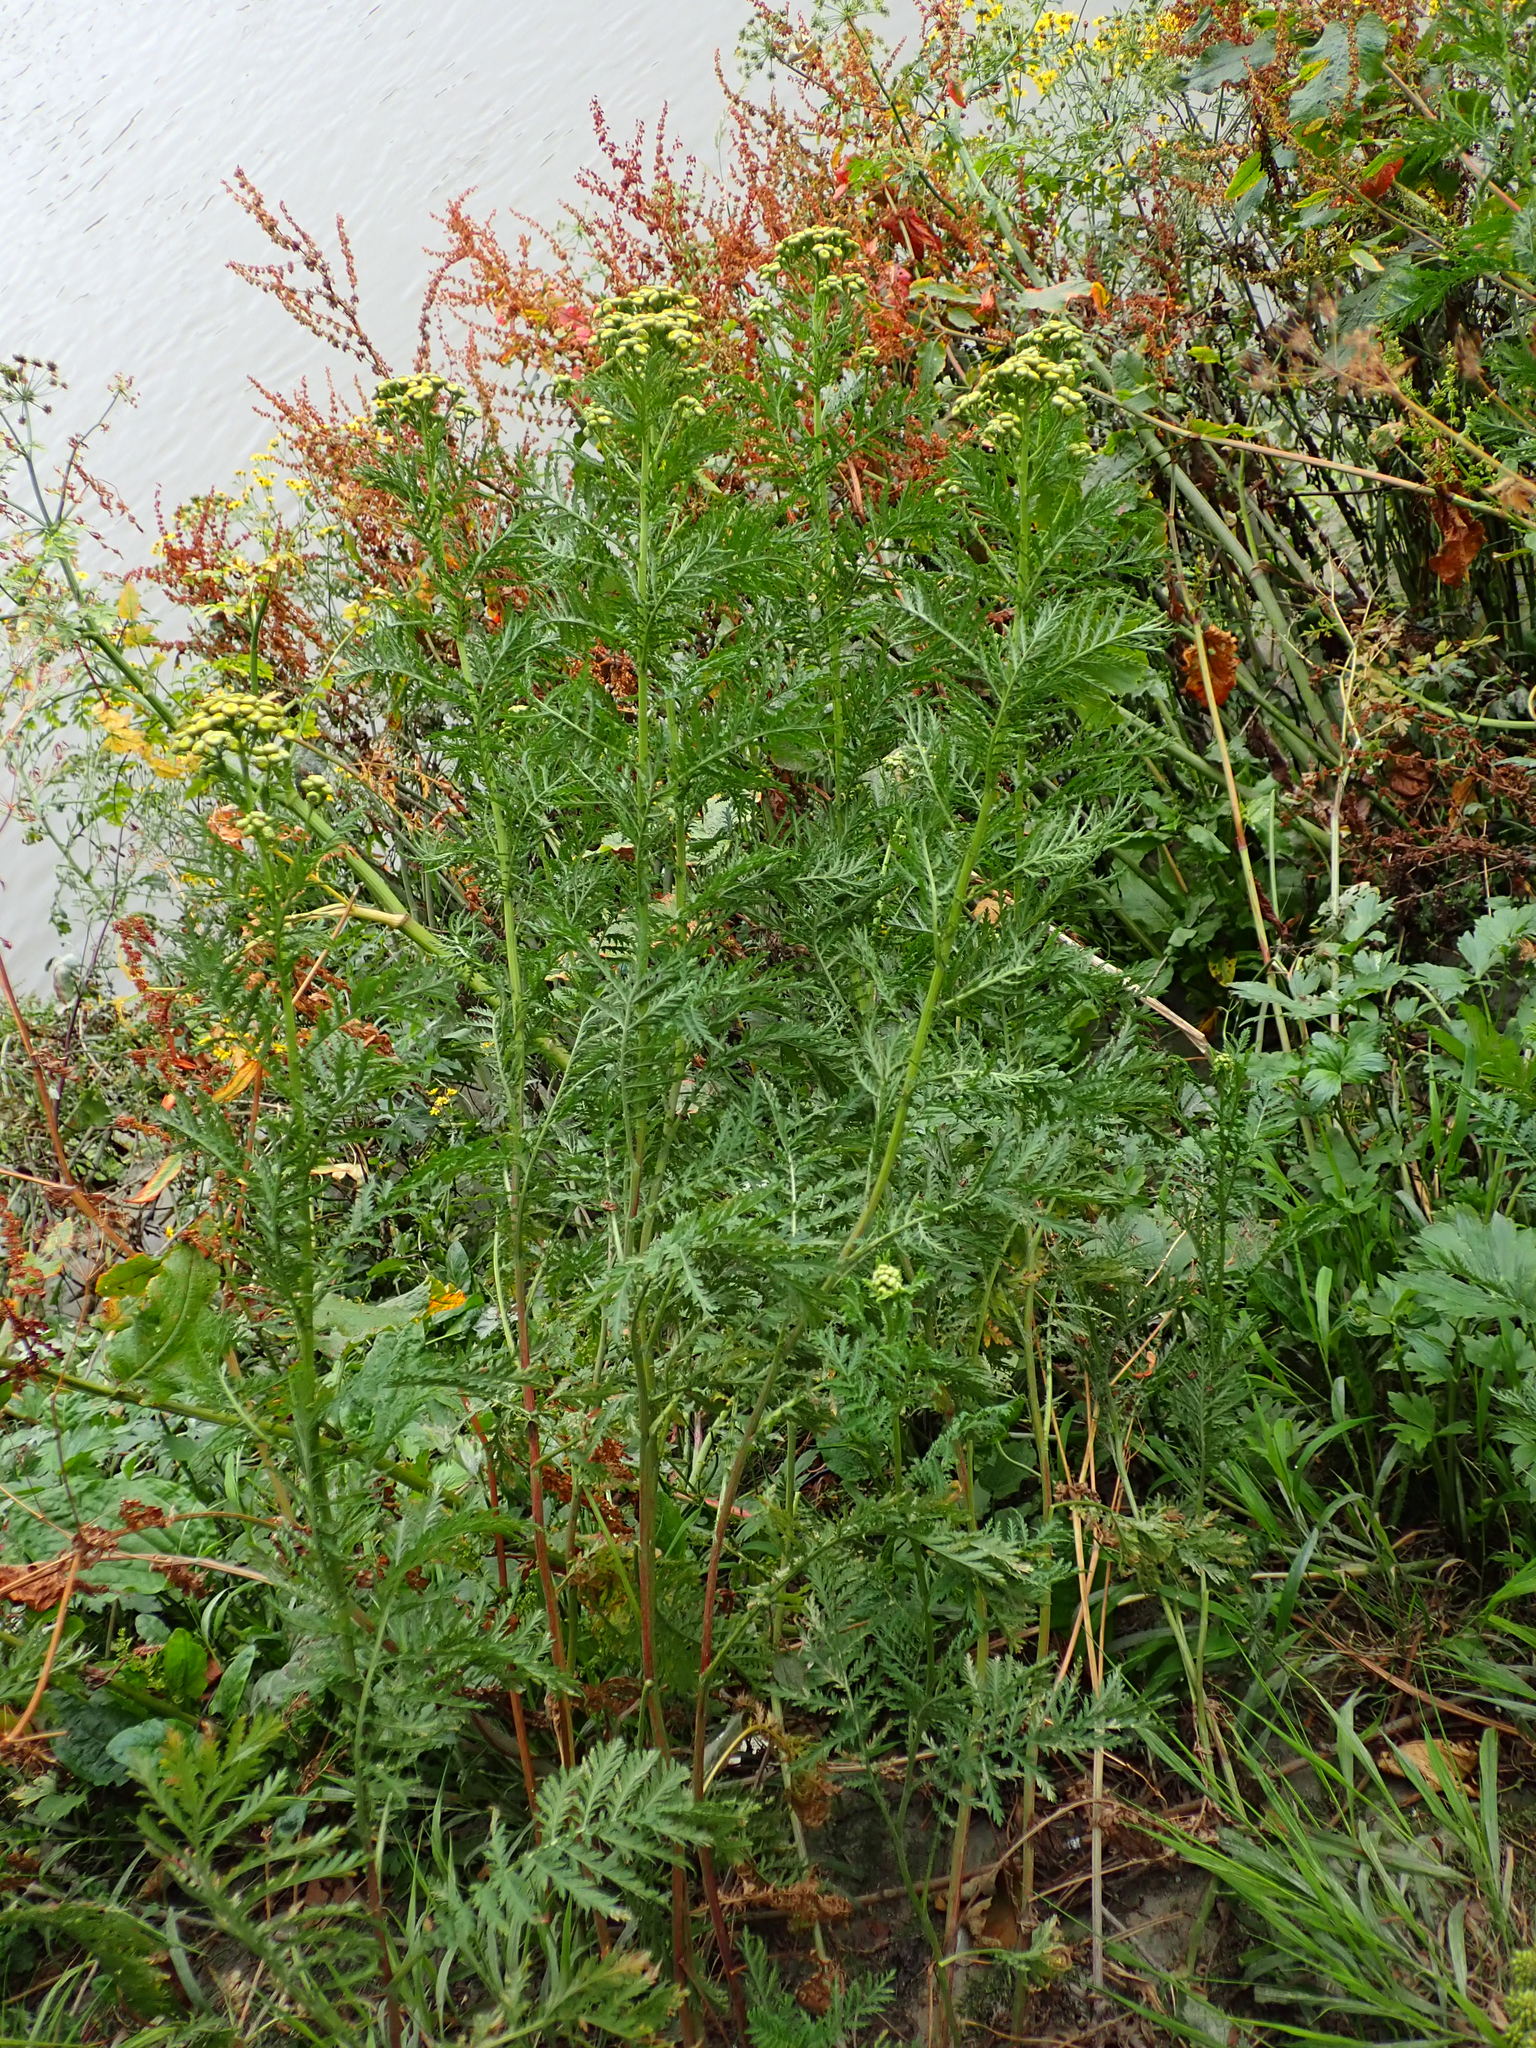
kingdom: Plantae
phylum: Tracheophyta
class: Magnoliopsida
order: Asterales
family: Asteraceae
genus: Tanacetum
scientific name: Tanacetum vulgare
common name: Common tansy
